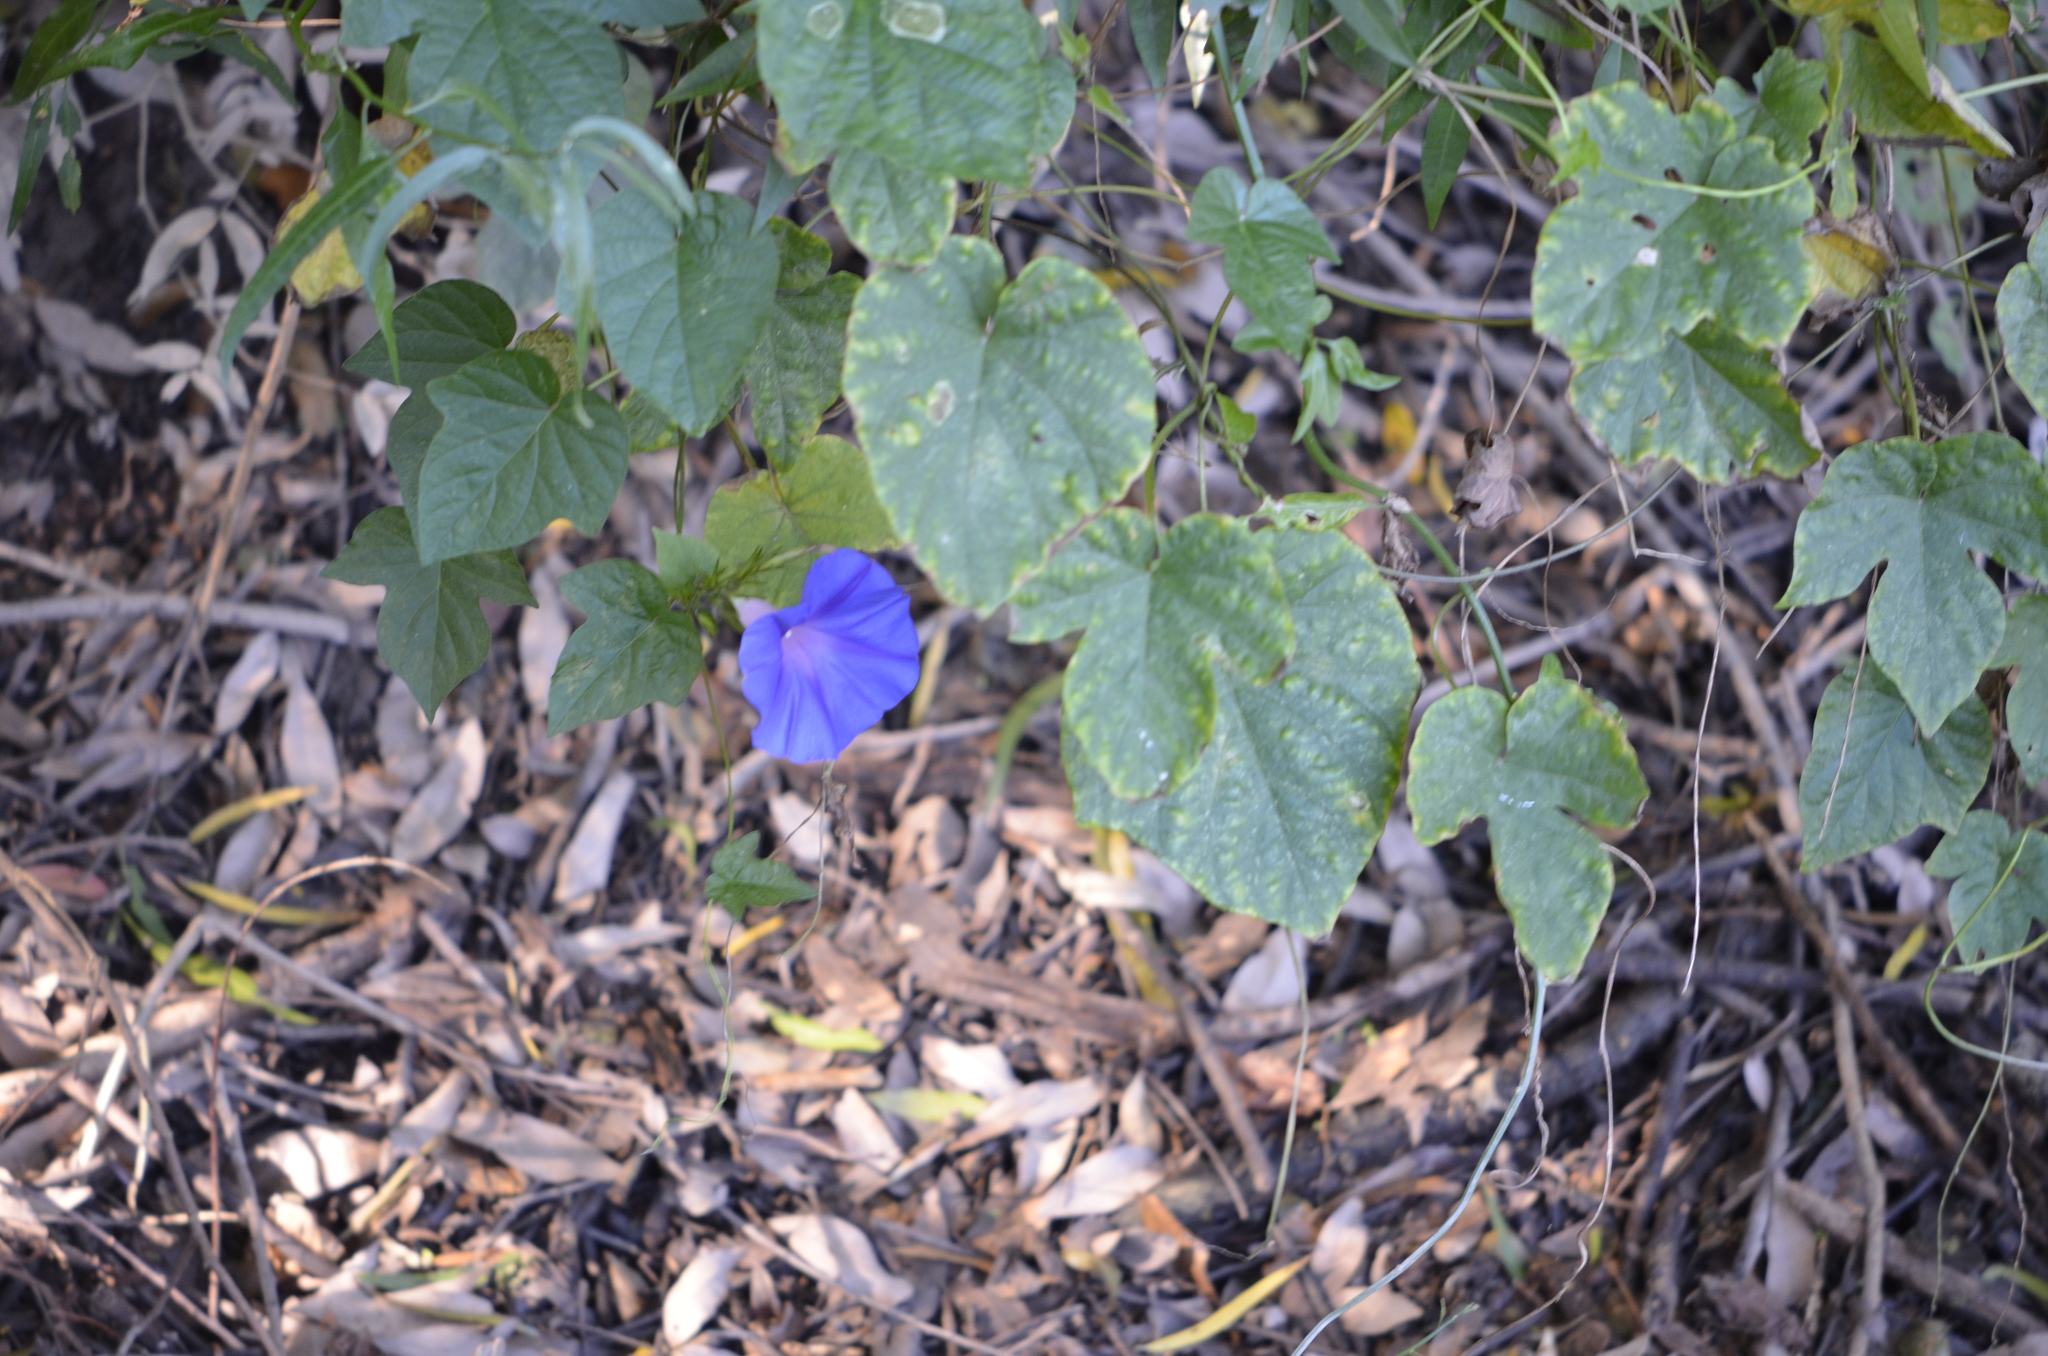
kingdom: Plantae
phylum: Tracheophyta
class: Magnoliopsida
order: Solanales
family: Convolvulaceae
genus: Ipomoea
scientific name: Ipomoea indica
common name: Blue dawnflower
